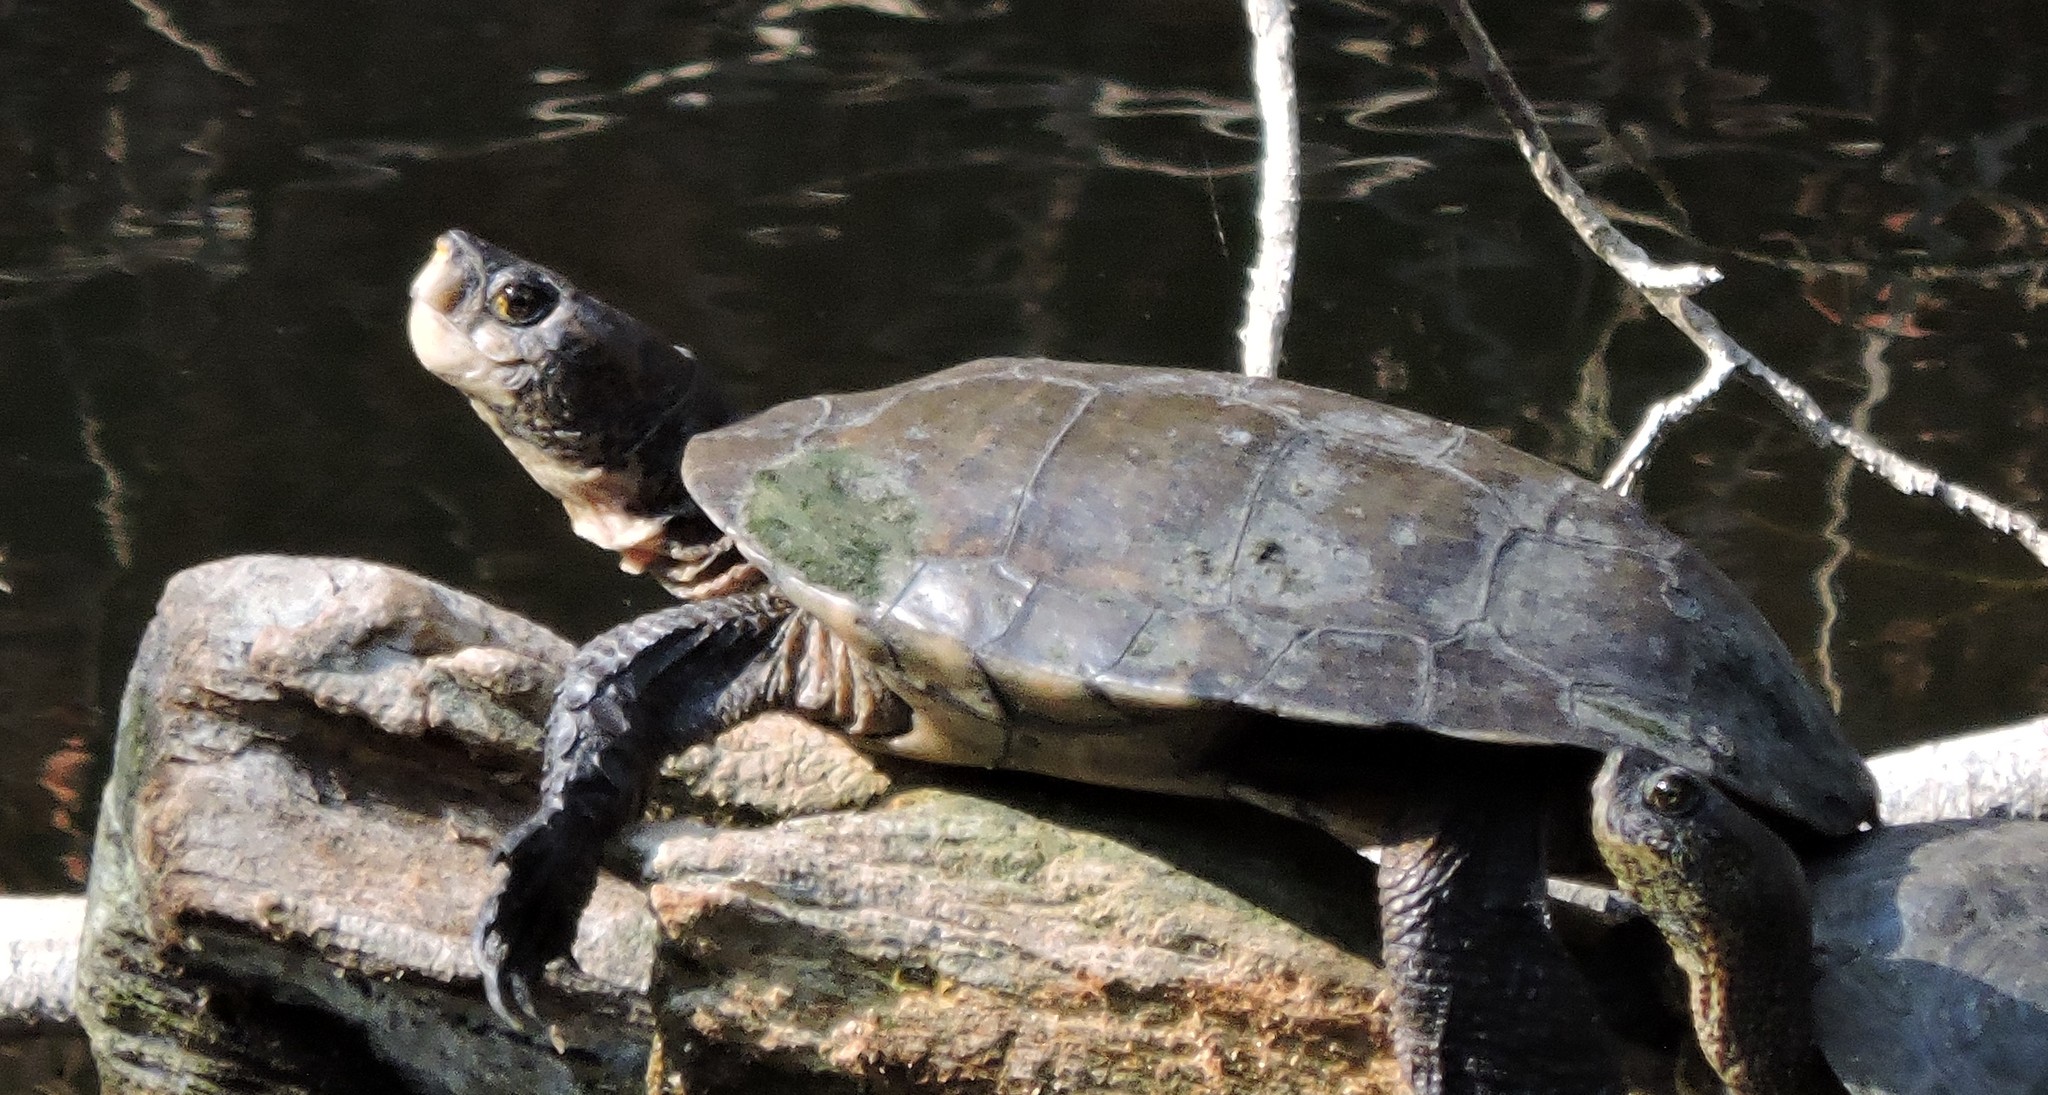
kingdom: Animalia
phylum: Chordata
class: Testudines
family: Emydidae
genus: Actinemys
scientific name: Actinemys marmorata
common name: Western pond turtle
